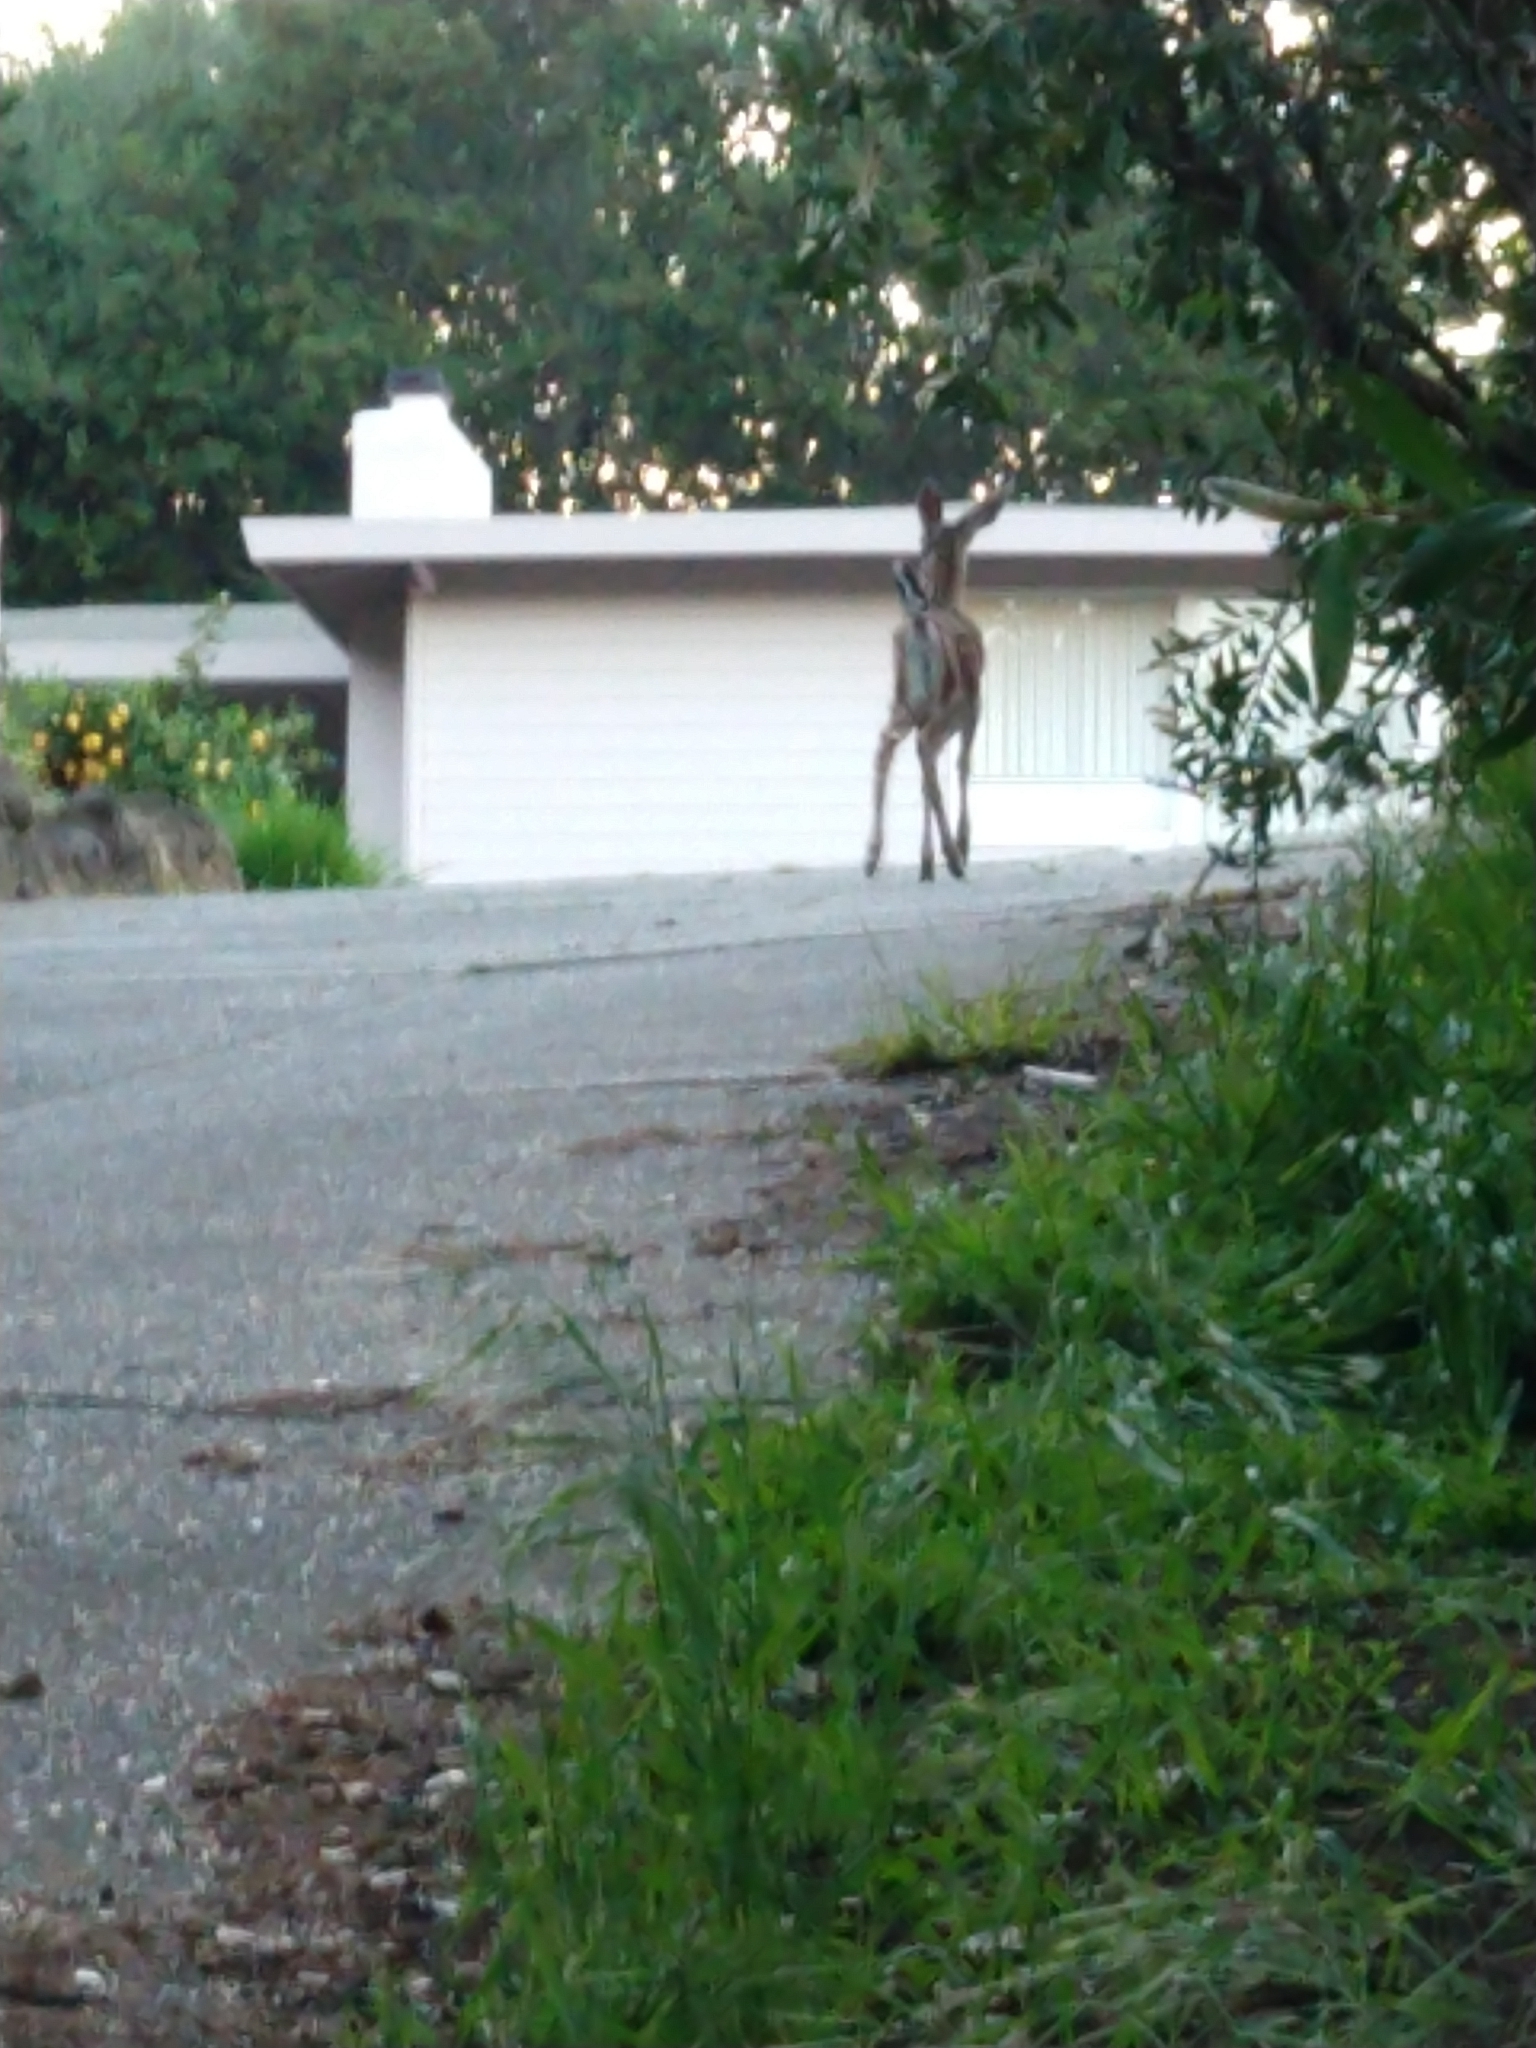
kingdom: Animalia
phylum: Chordata
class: Mammalia
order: Artiodactyla
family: Cervidae
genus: Odocoileus
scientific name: Odocoileus hemionus
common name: Mule deer
